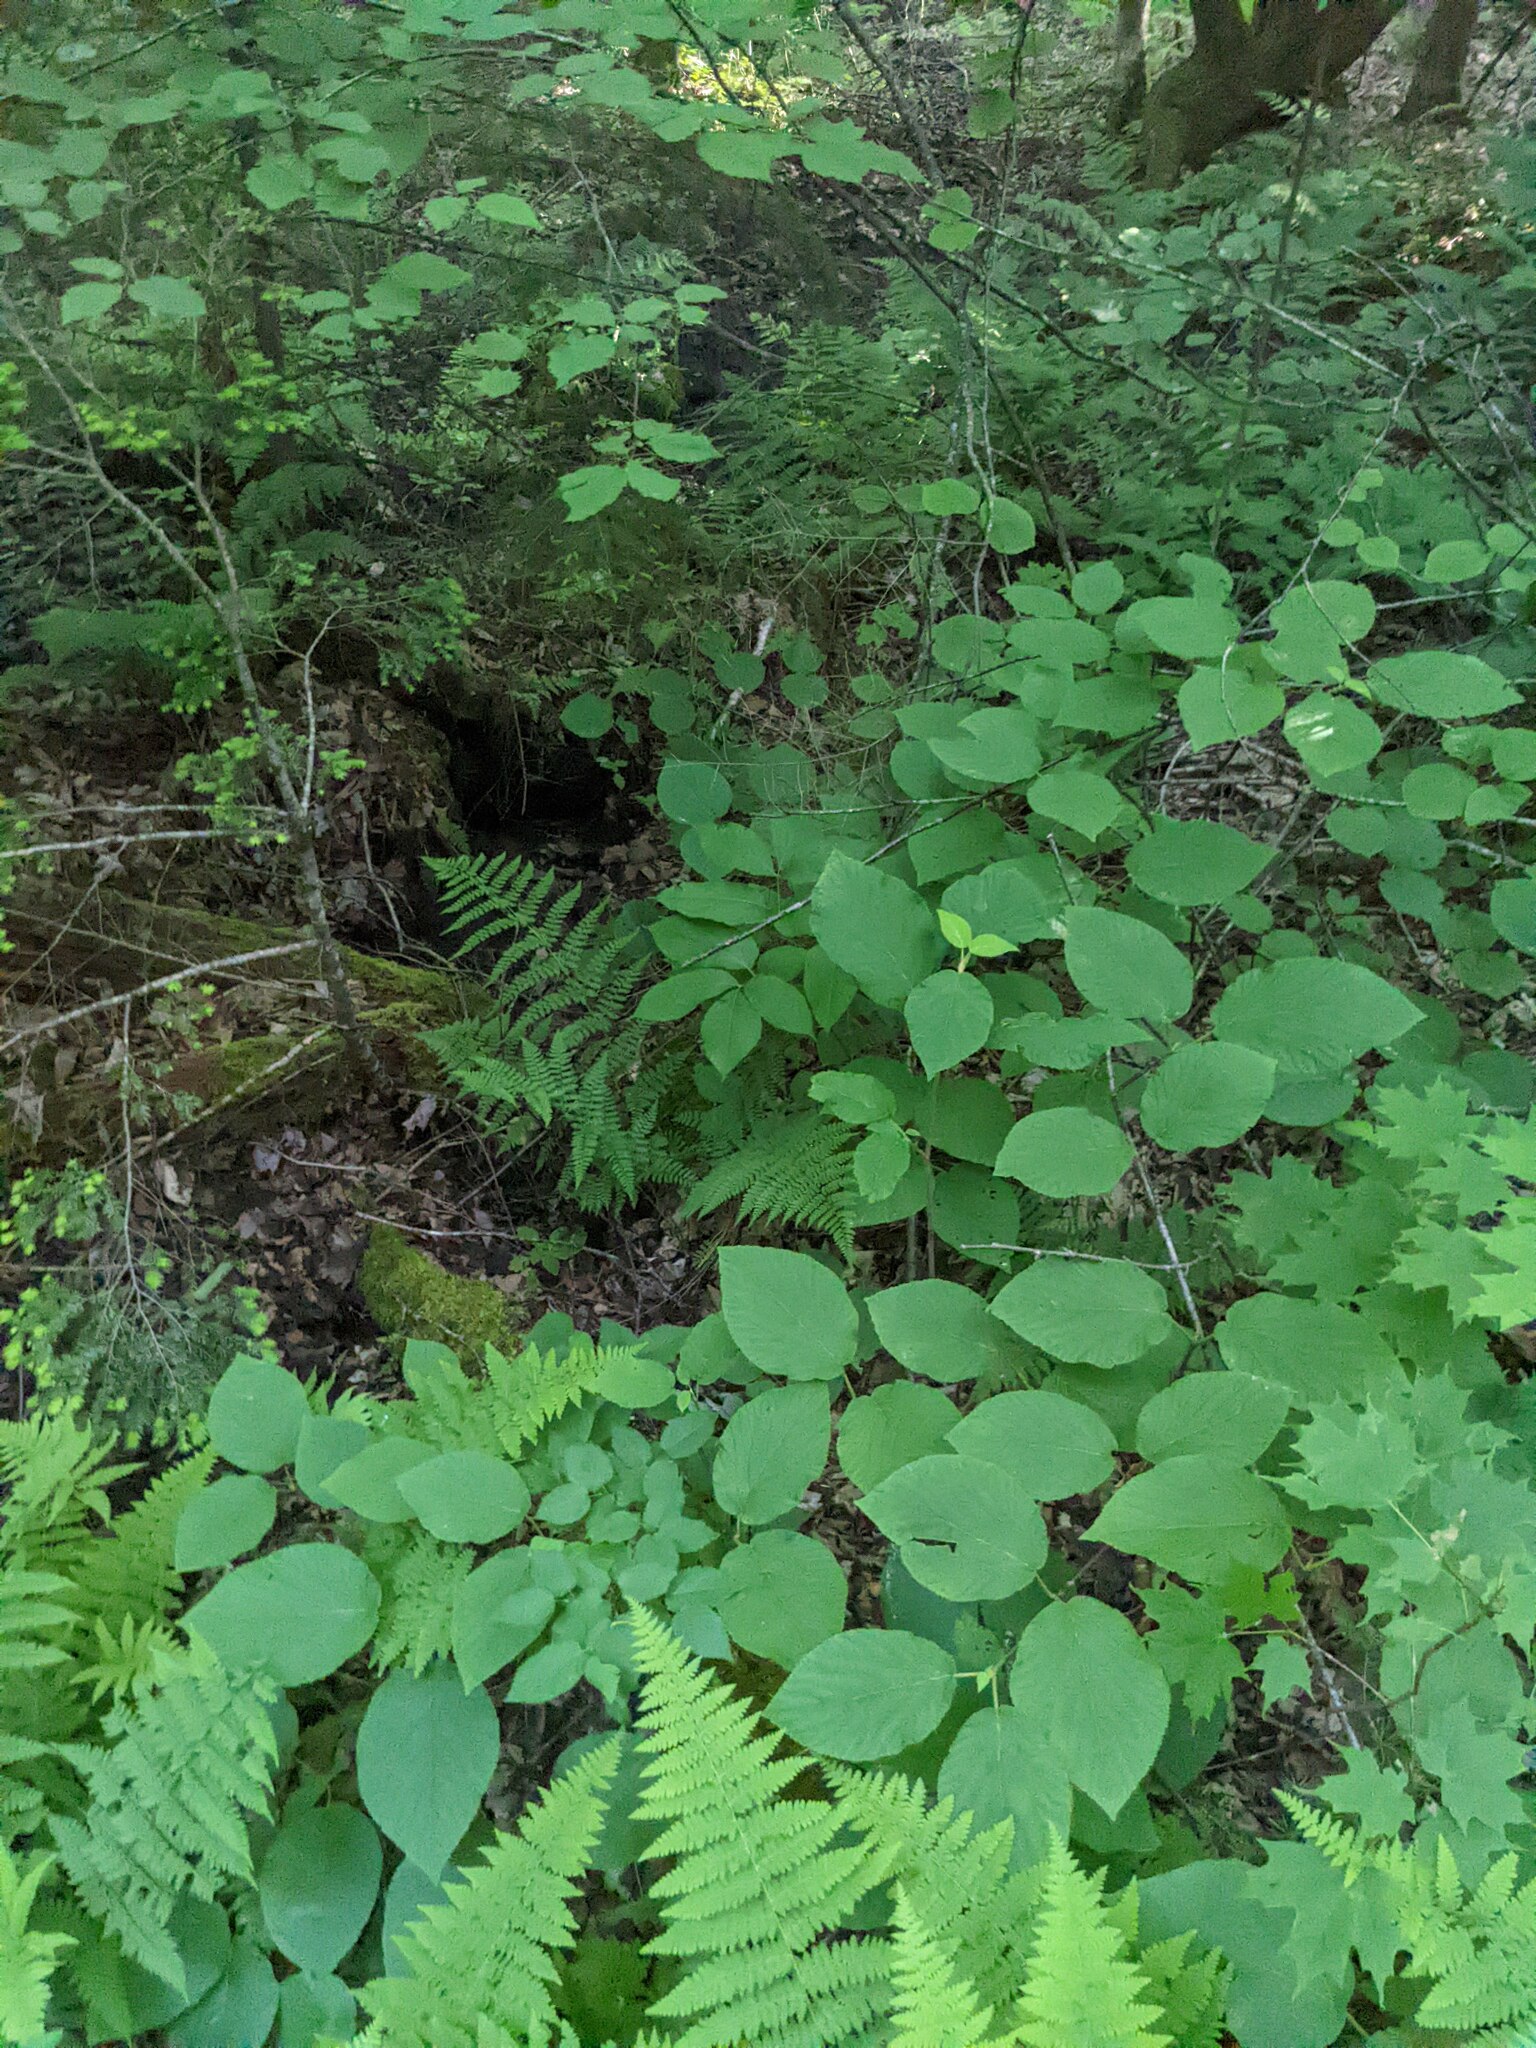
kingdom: Plantae
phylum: Tracheophyta
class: Magnoliopsida
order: Dipsacales
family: Viburnaceae
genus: Viburnum
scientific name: Viburnum lantanoides
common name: Hobblebush
